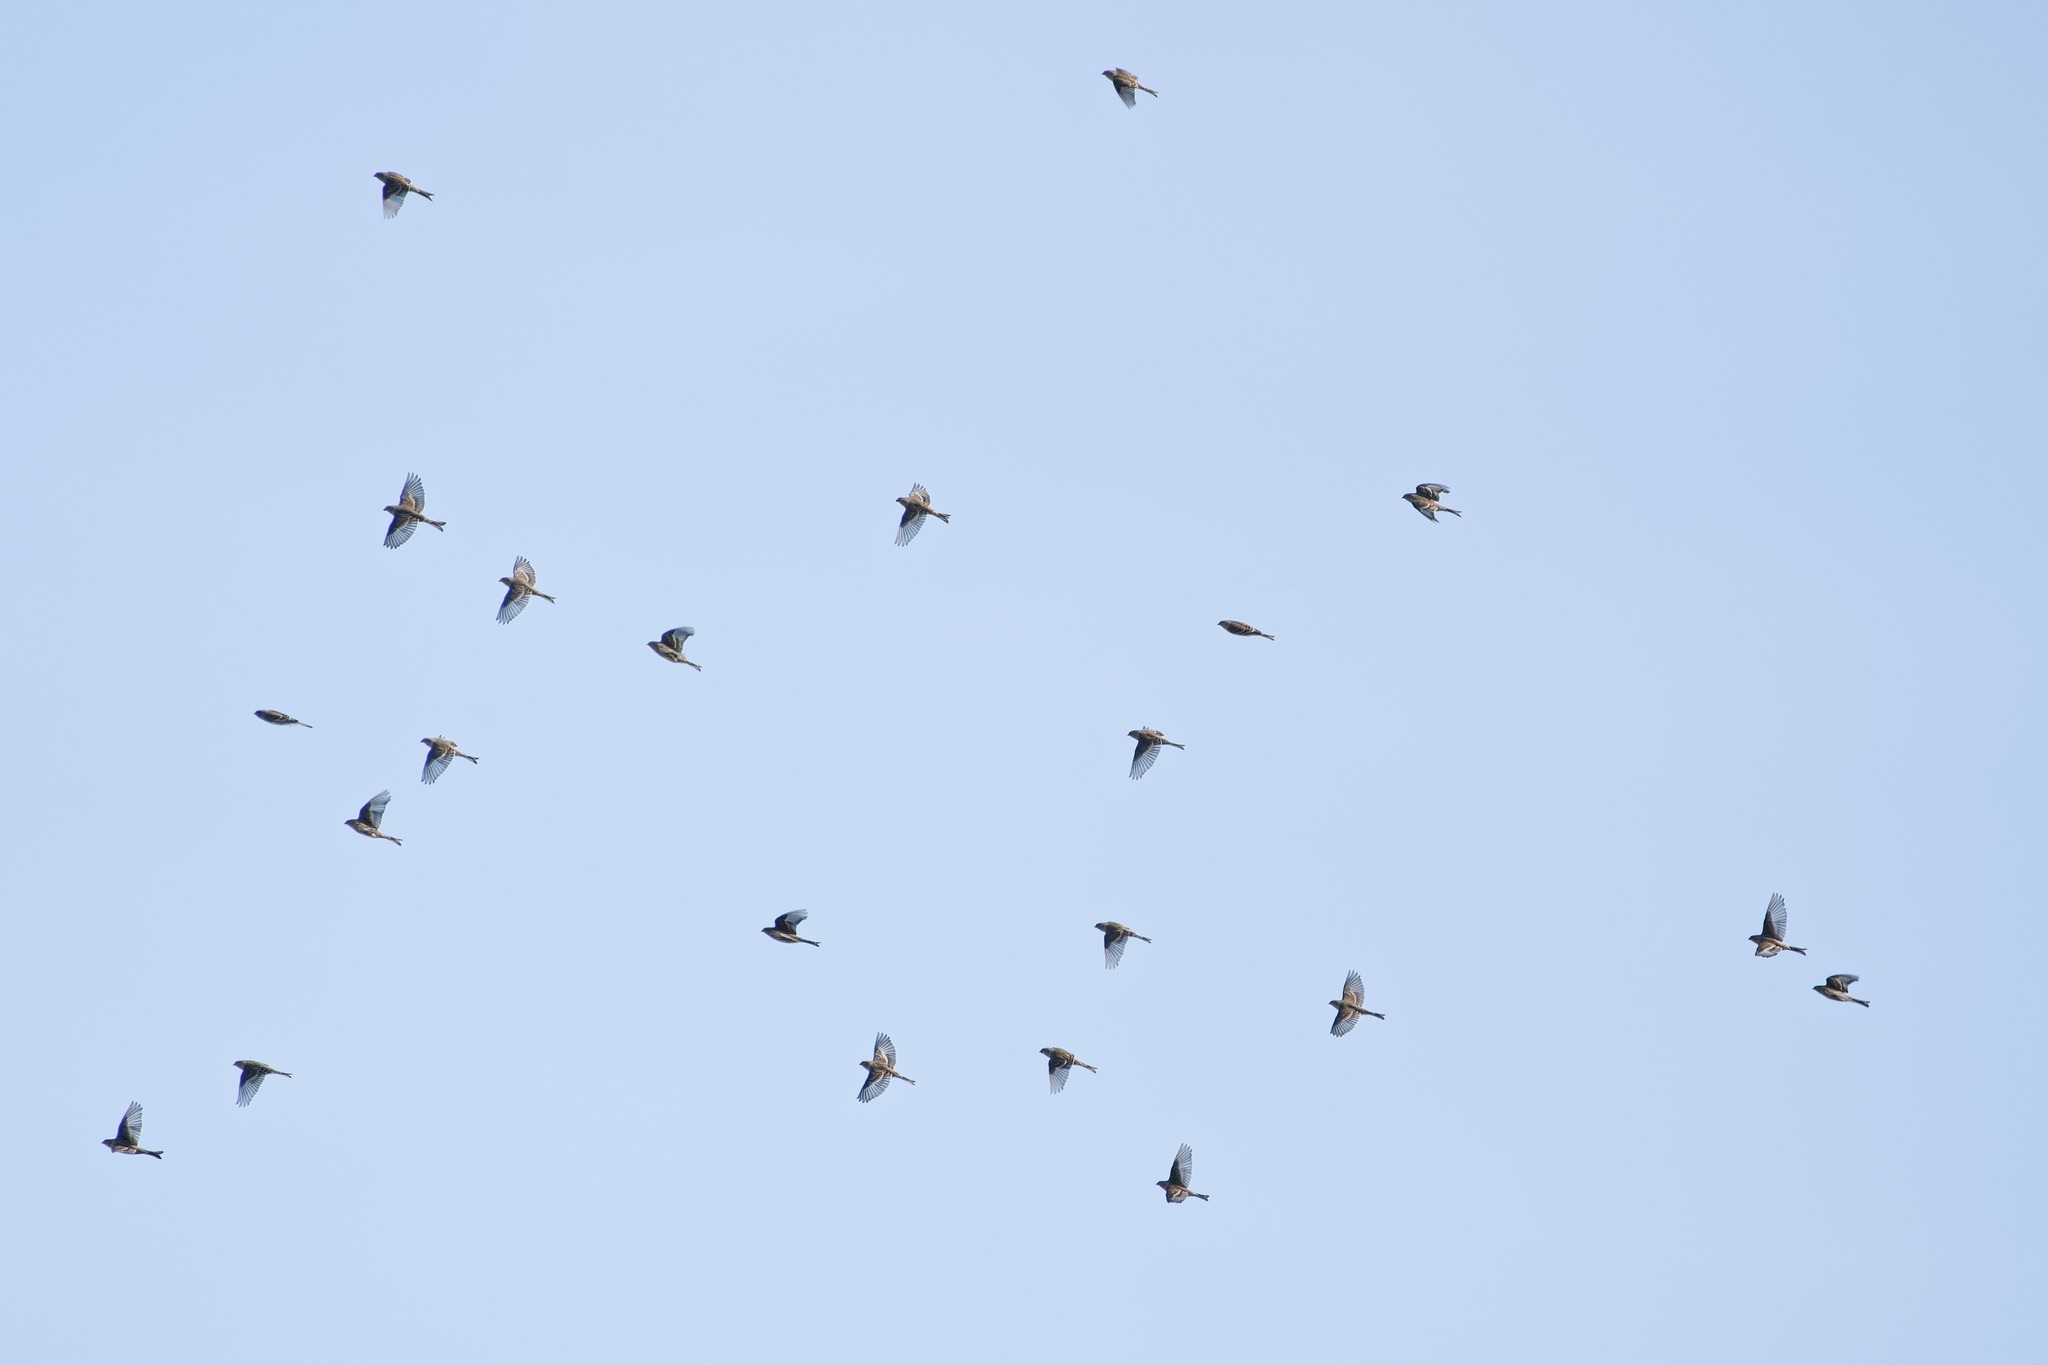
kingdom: Animalia
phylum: Chordata
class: Aves
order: Passeriformes
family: Fringillidae
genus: Linaria
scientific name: Linaria flavirostris
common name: Twite
